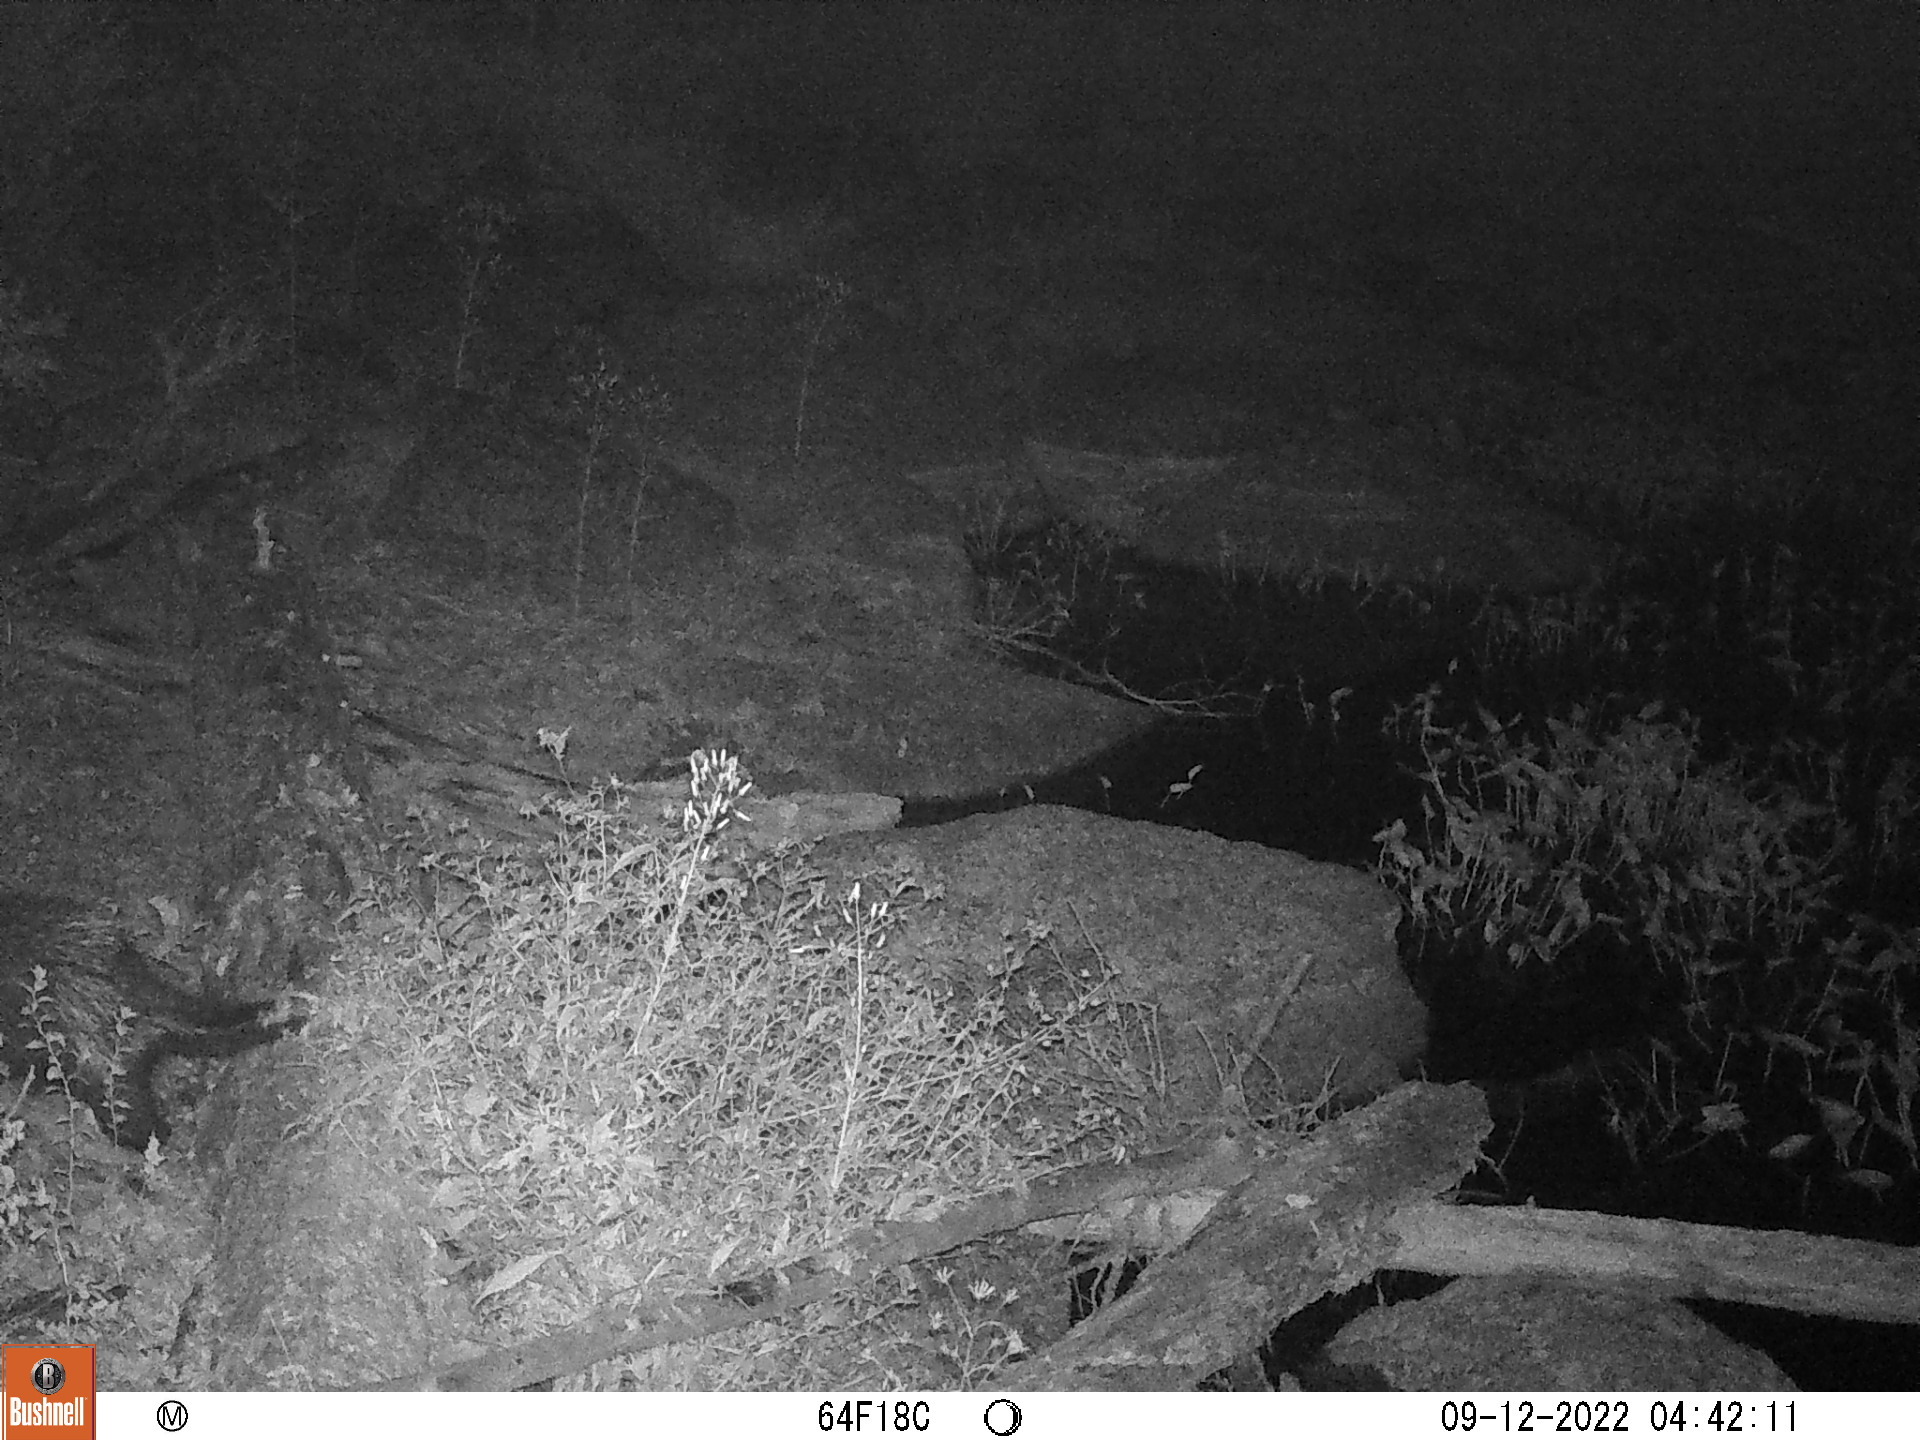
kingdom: Animalia
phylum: Chordata
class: Mammalia
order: Rodentia
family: Erethizontidae
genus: Erethizon
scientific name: Erethizon dorsatus
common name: North american porcupine
